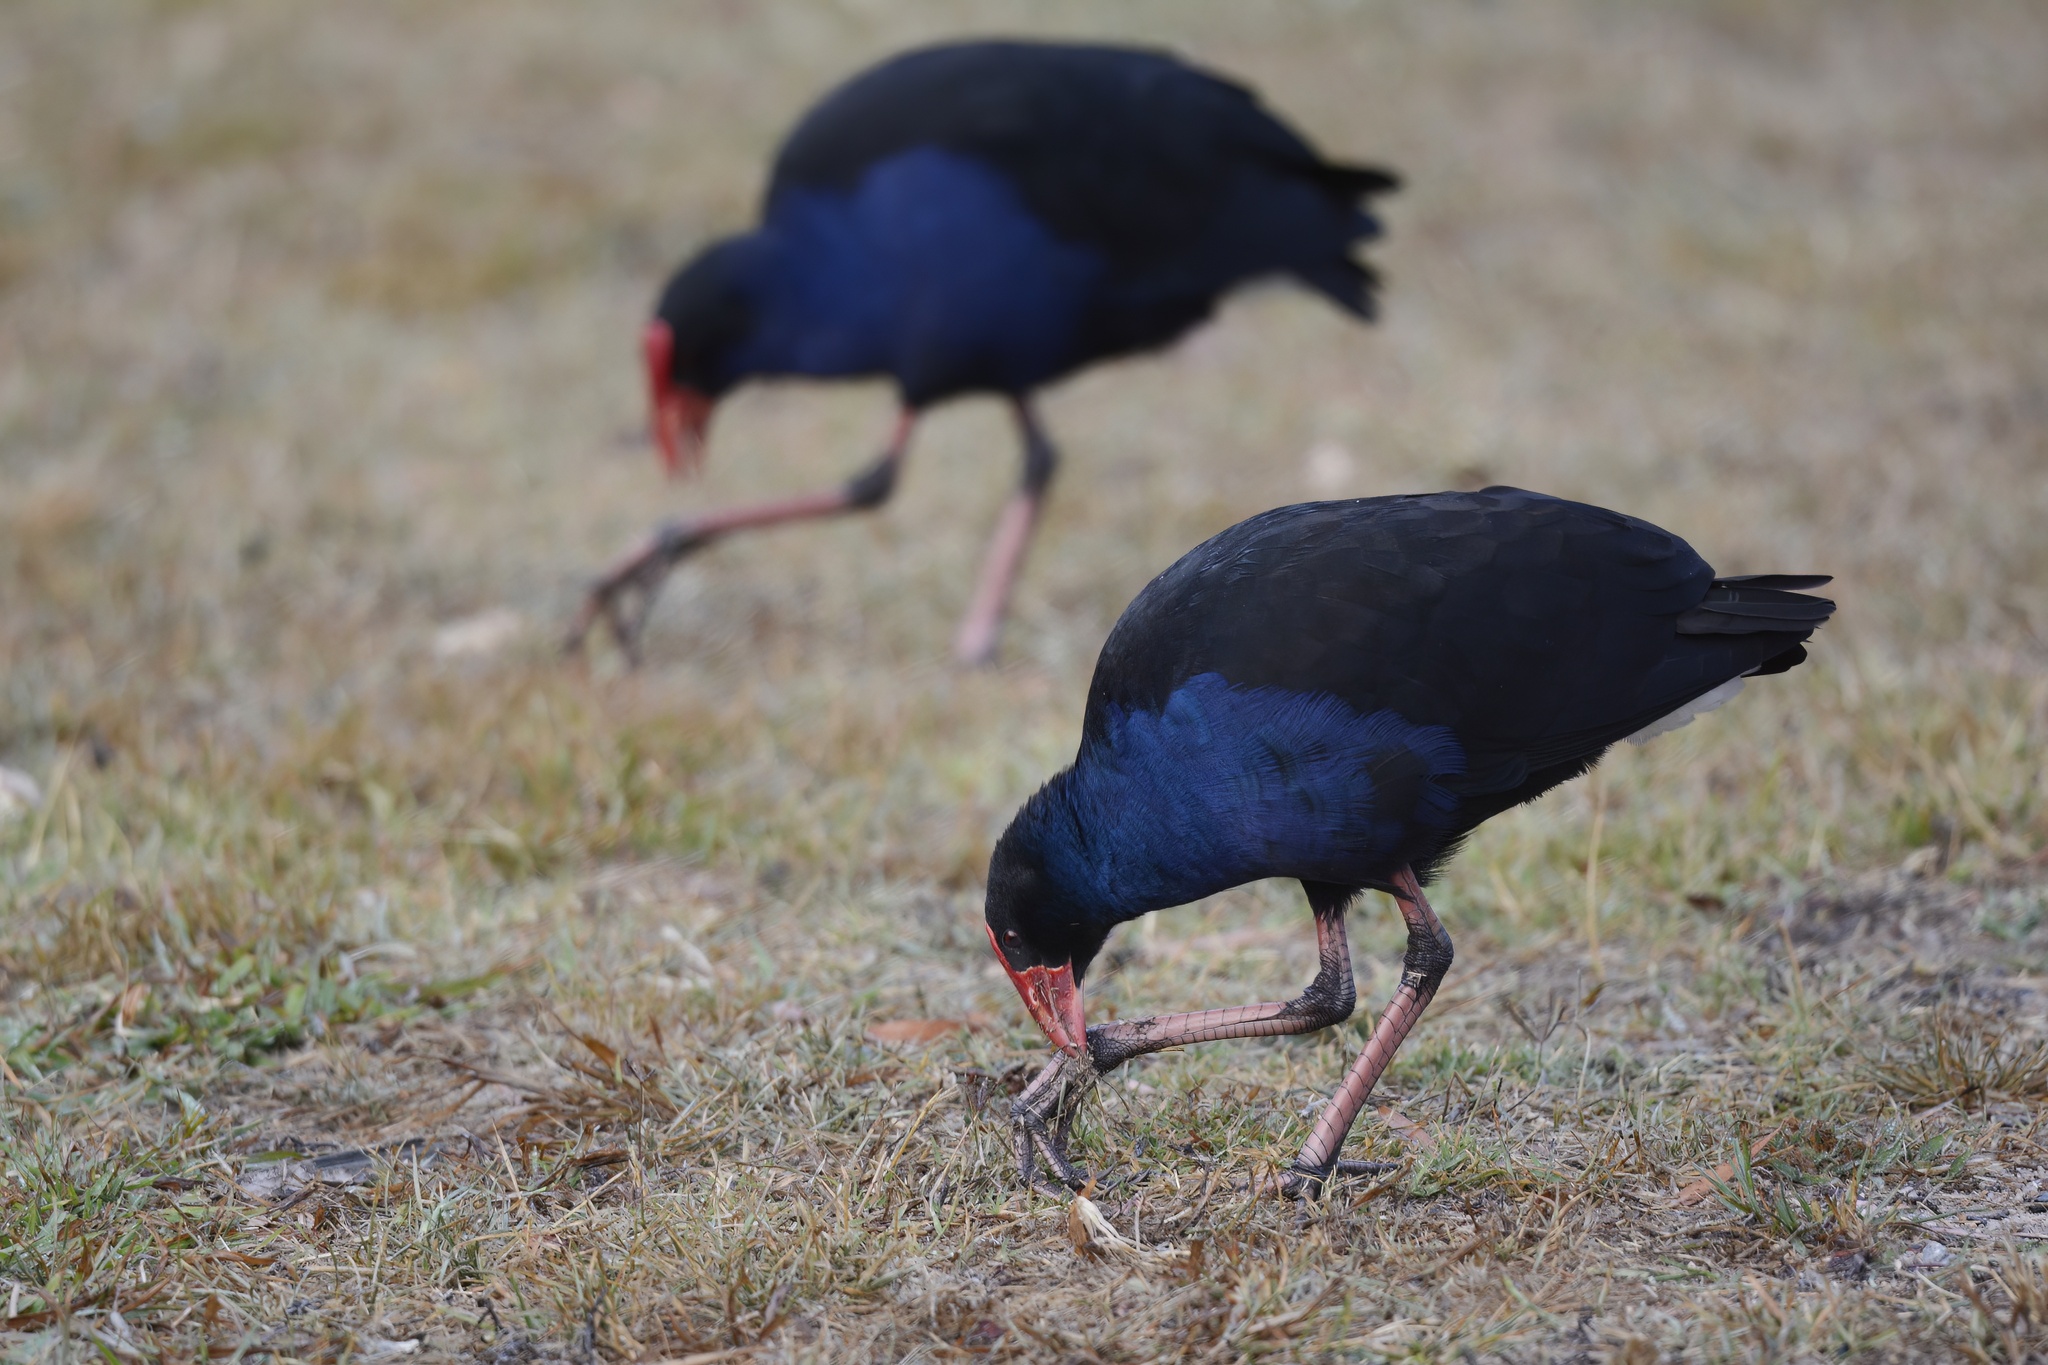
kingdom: Animalia
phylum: Chordata
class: Aves
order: Gruiformes
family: Rallidae
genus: Porphyrio
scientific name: Porphyrio melanotus
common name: Australasian swamphen
